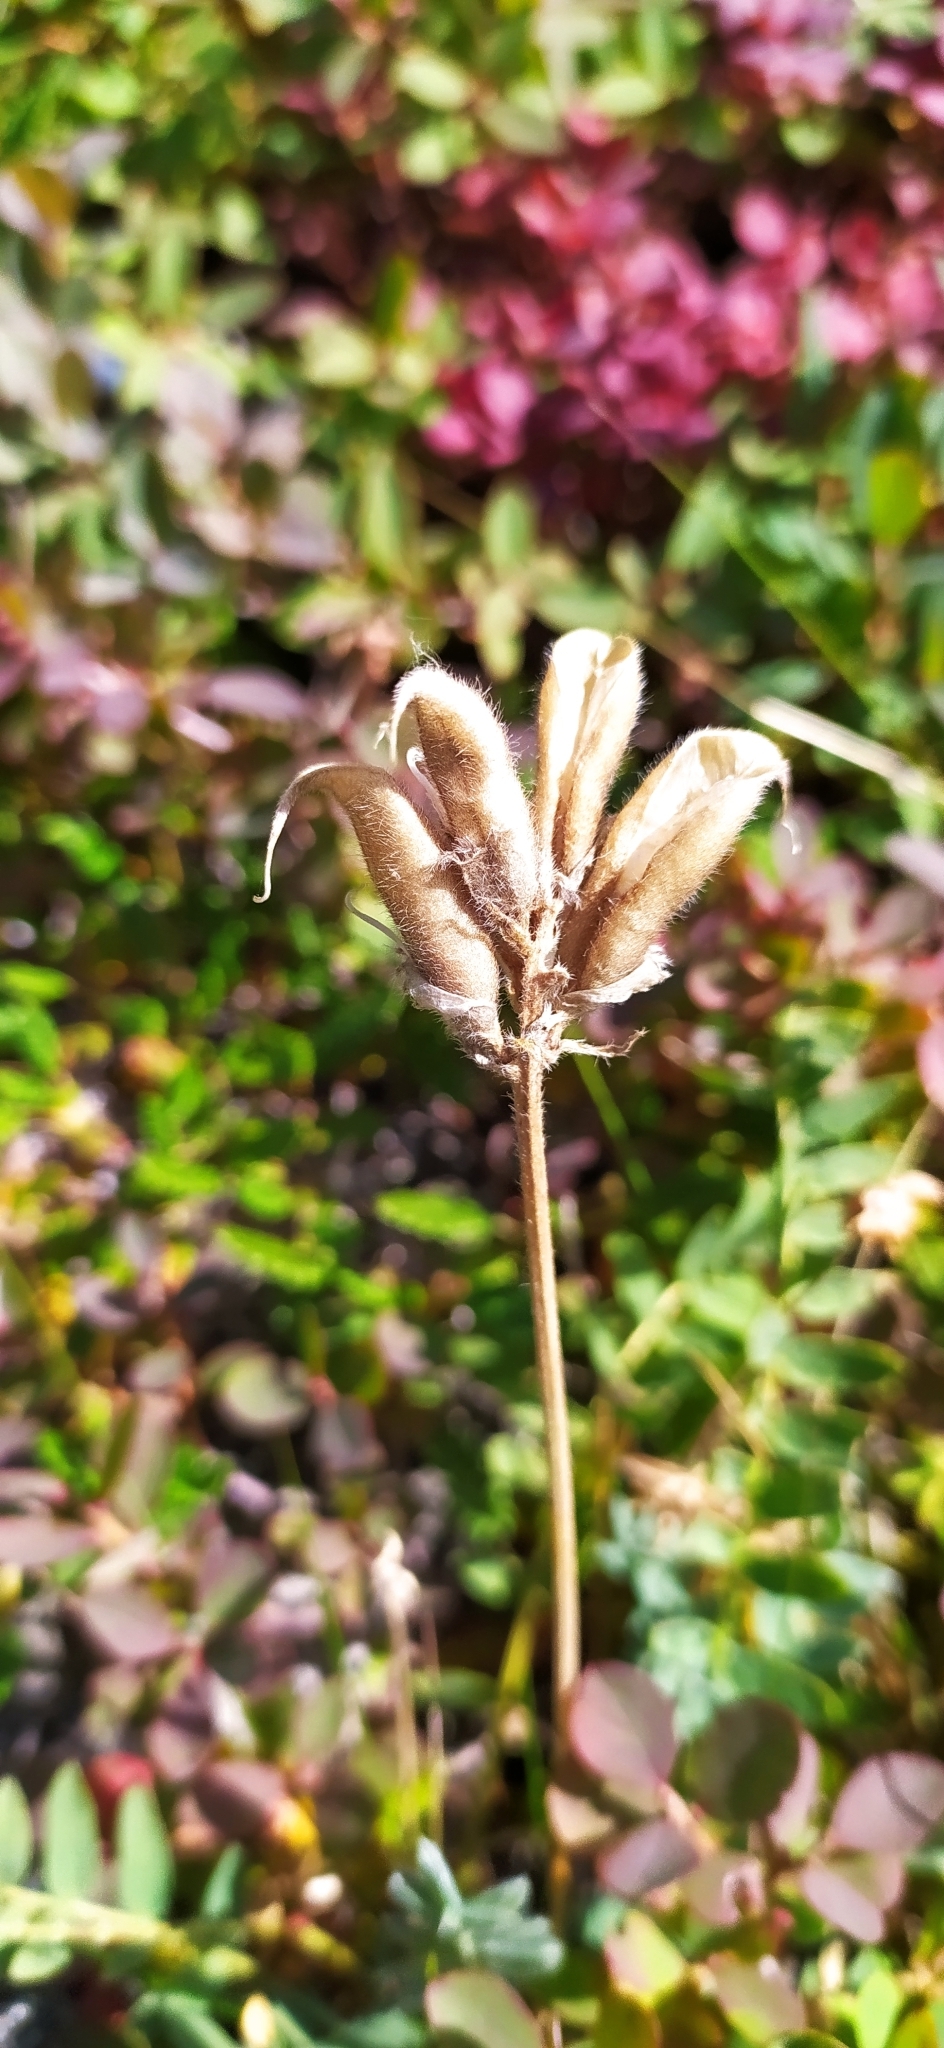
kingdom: Plantae
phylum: Tracheophyta
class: Magnoliopsida
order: Fabales
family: Fabaceae
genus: Oxytropis
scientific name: Oxytropis sordida
